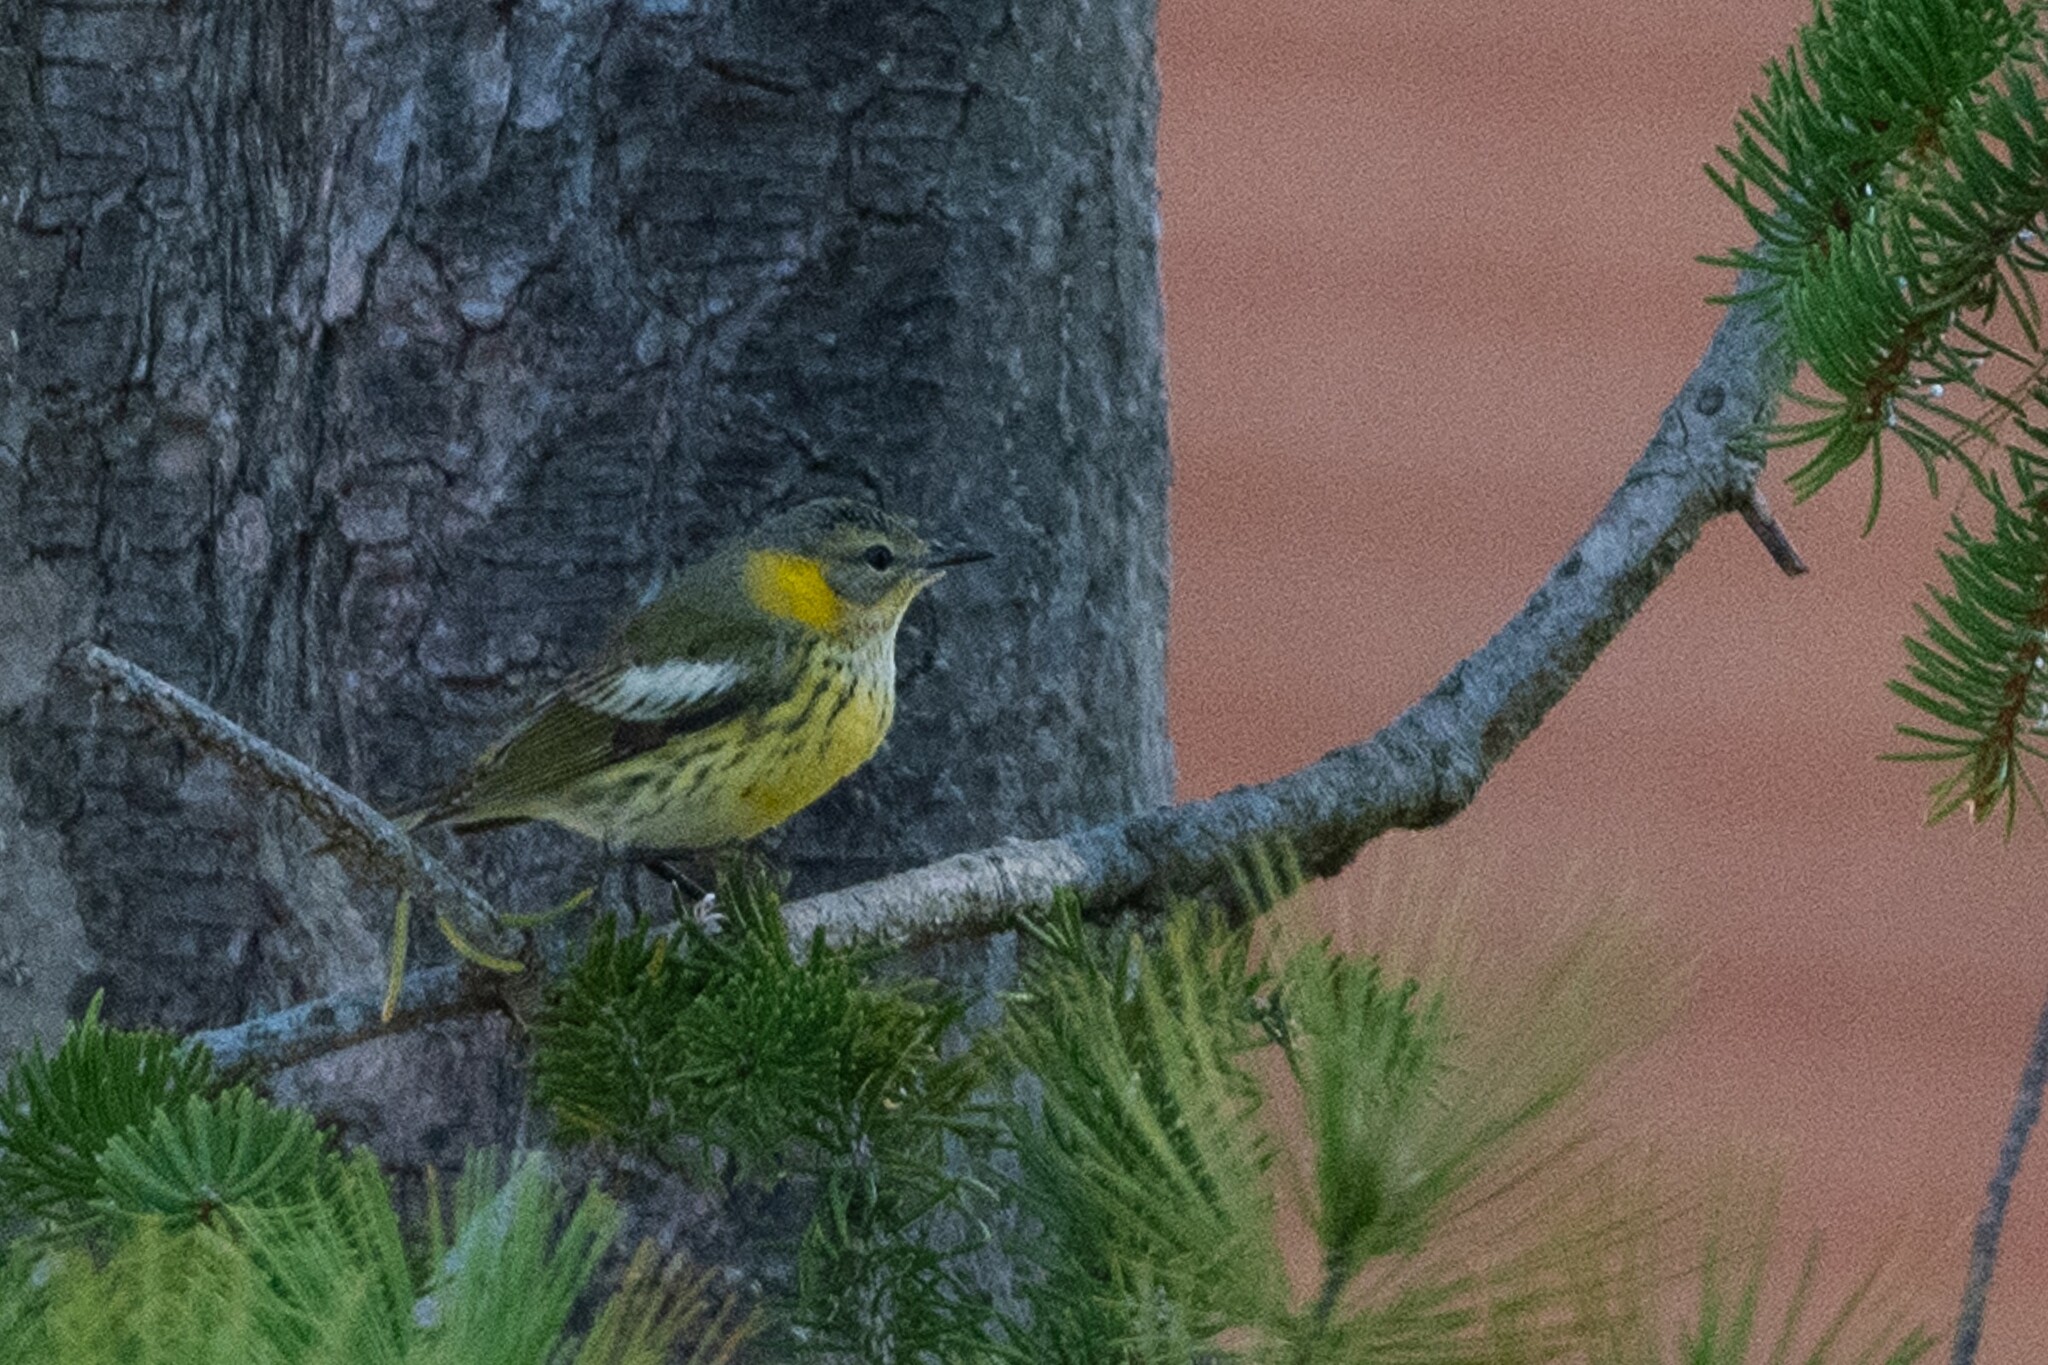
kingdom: Animalia
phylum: Chordata
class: Aves
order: Passeriformes
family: Parulidae
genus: Setophaga
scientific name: Setophaga tigrina
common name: Cape may warbler
